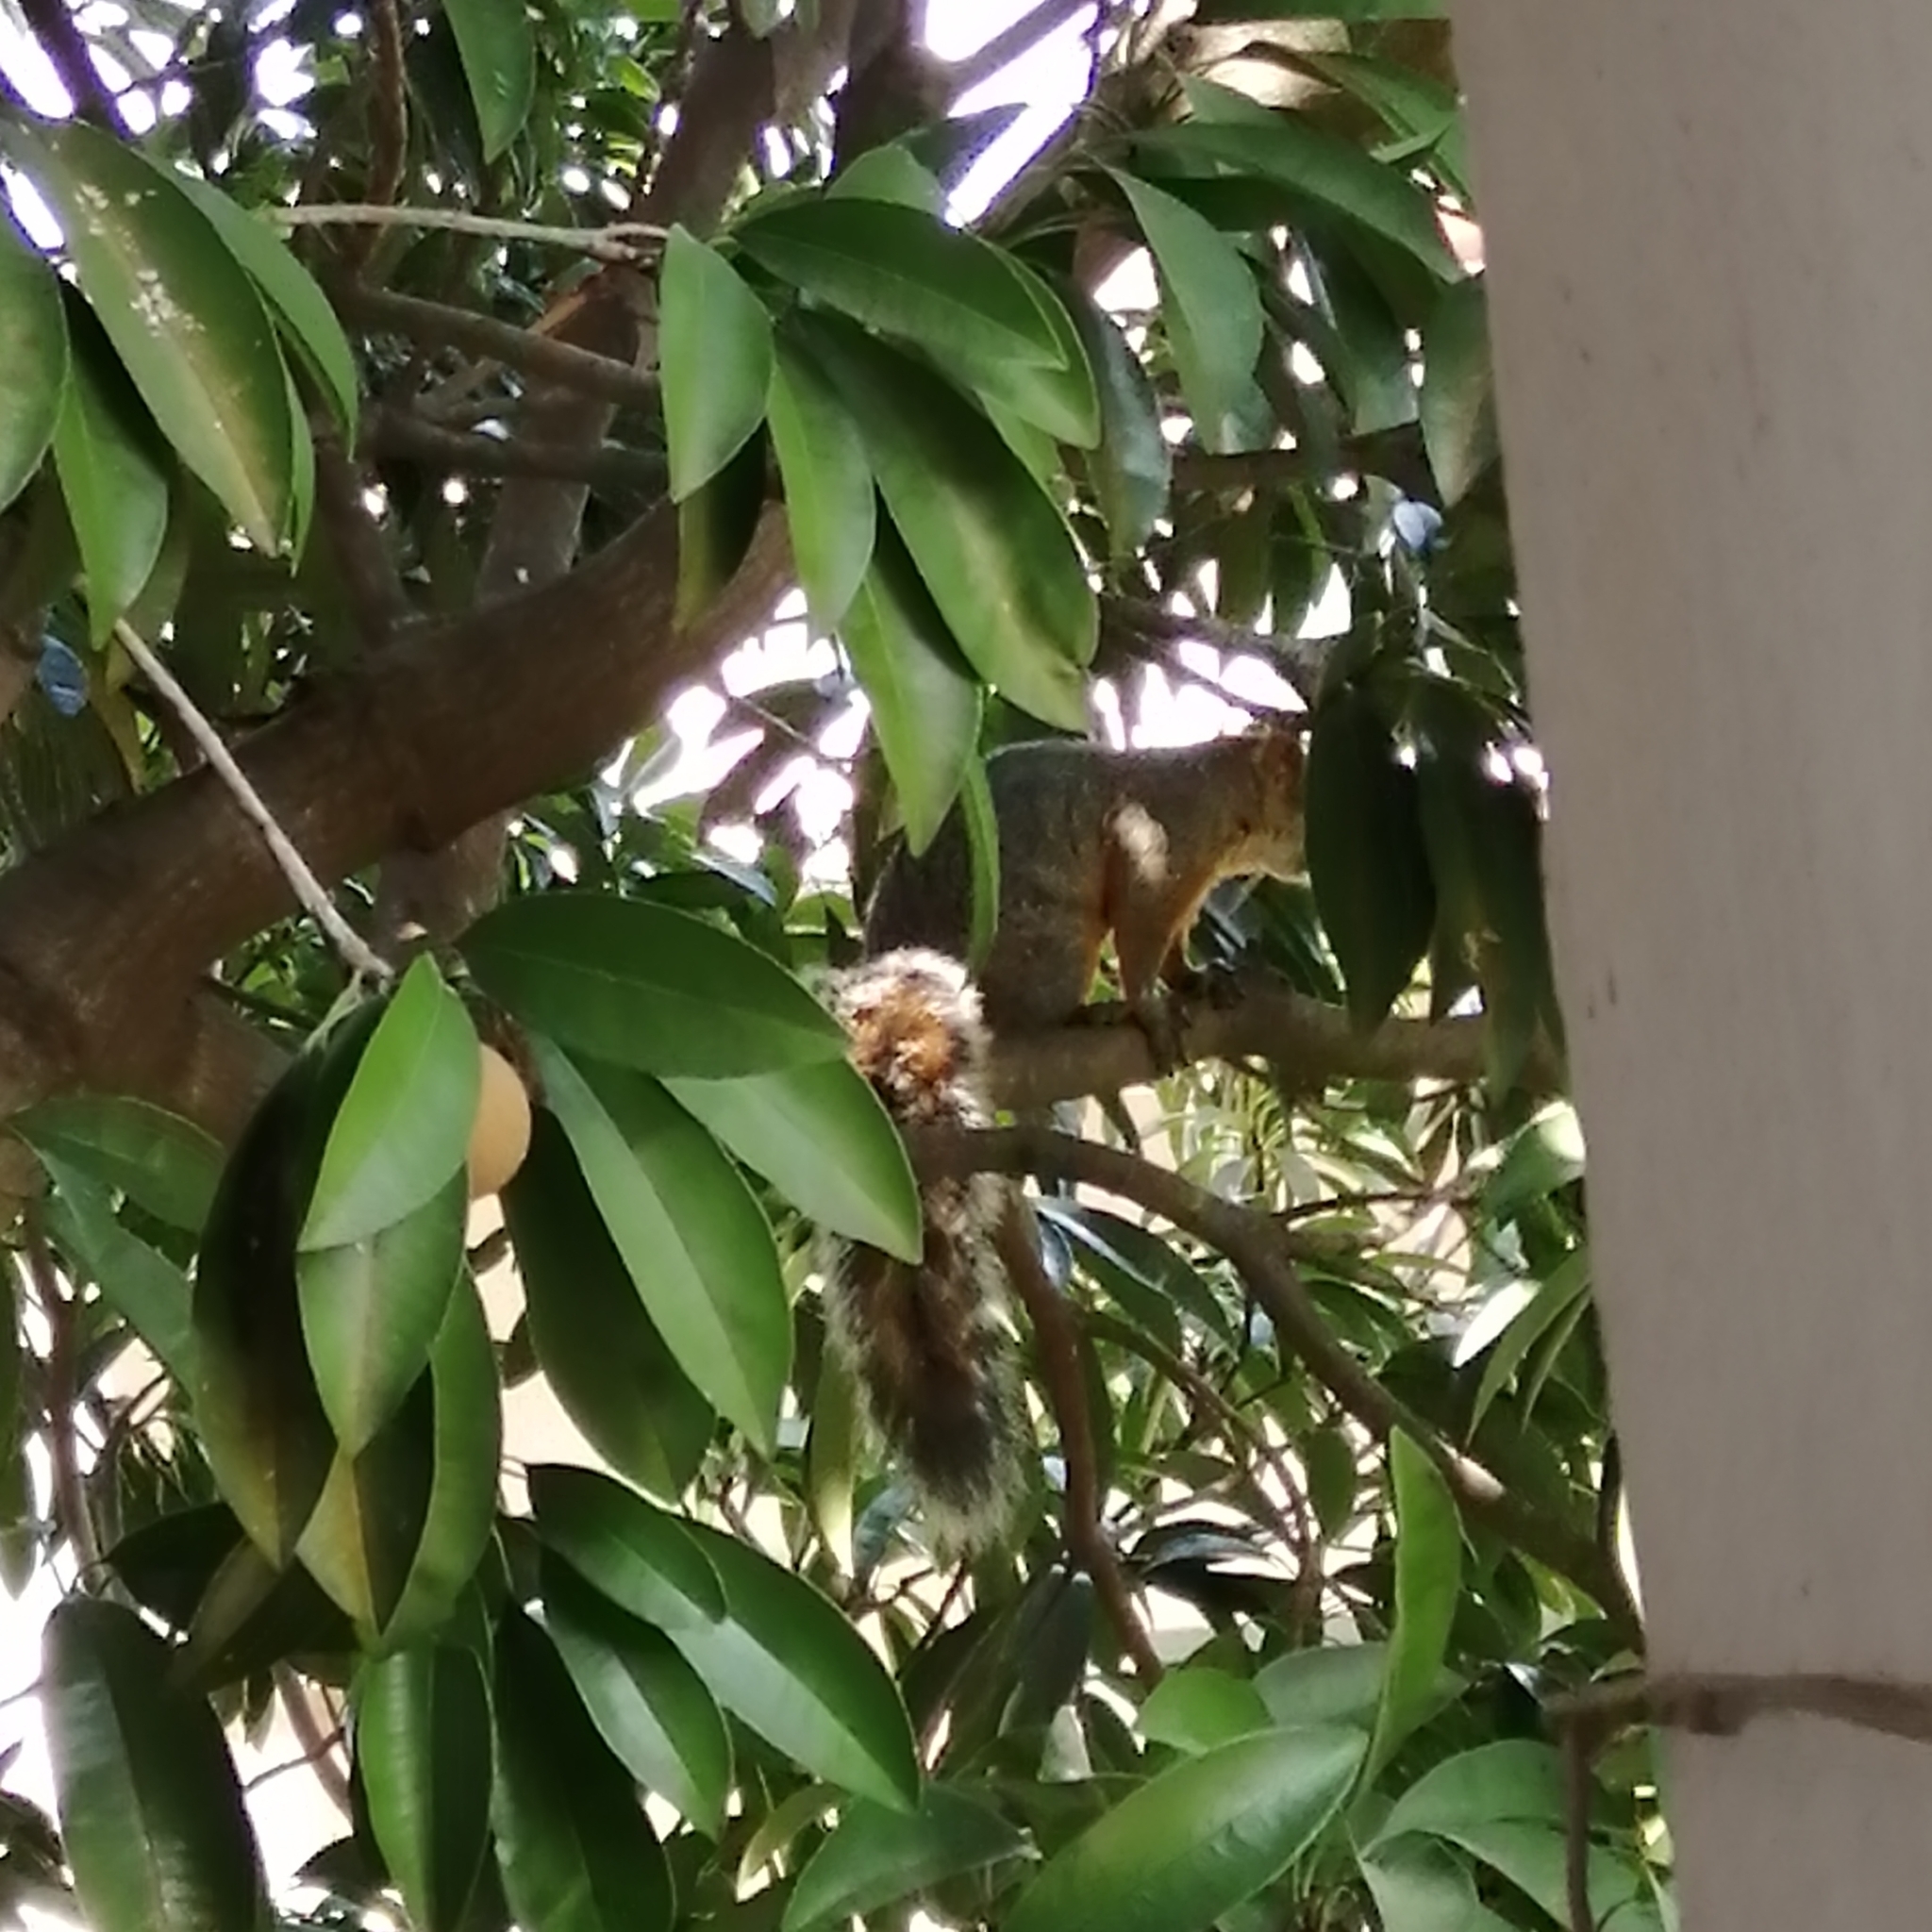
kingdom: Animalia
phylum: Chordata
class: Mammalia
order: Rodentia
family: Sciuridae
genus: Sciurus
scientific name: Sciurus aureogaster
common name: Red-bellied squirrel
